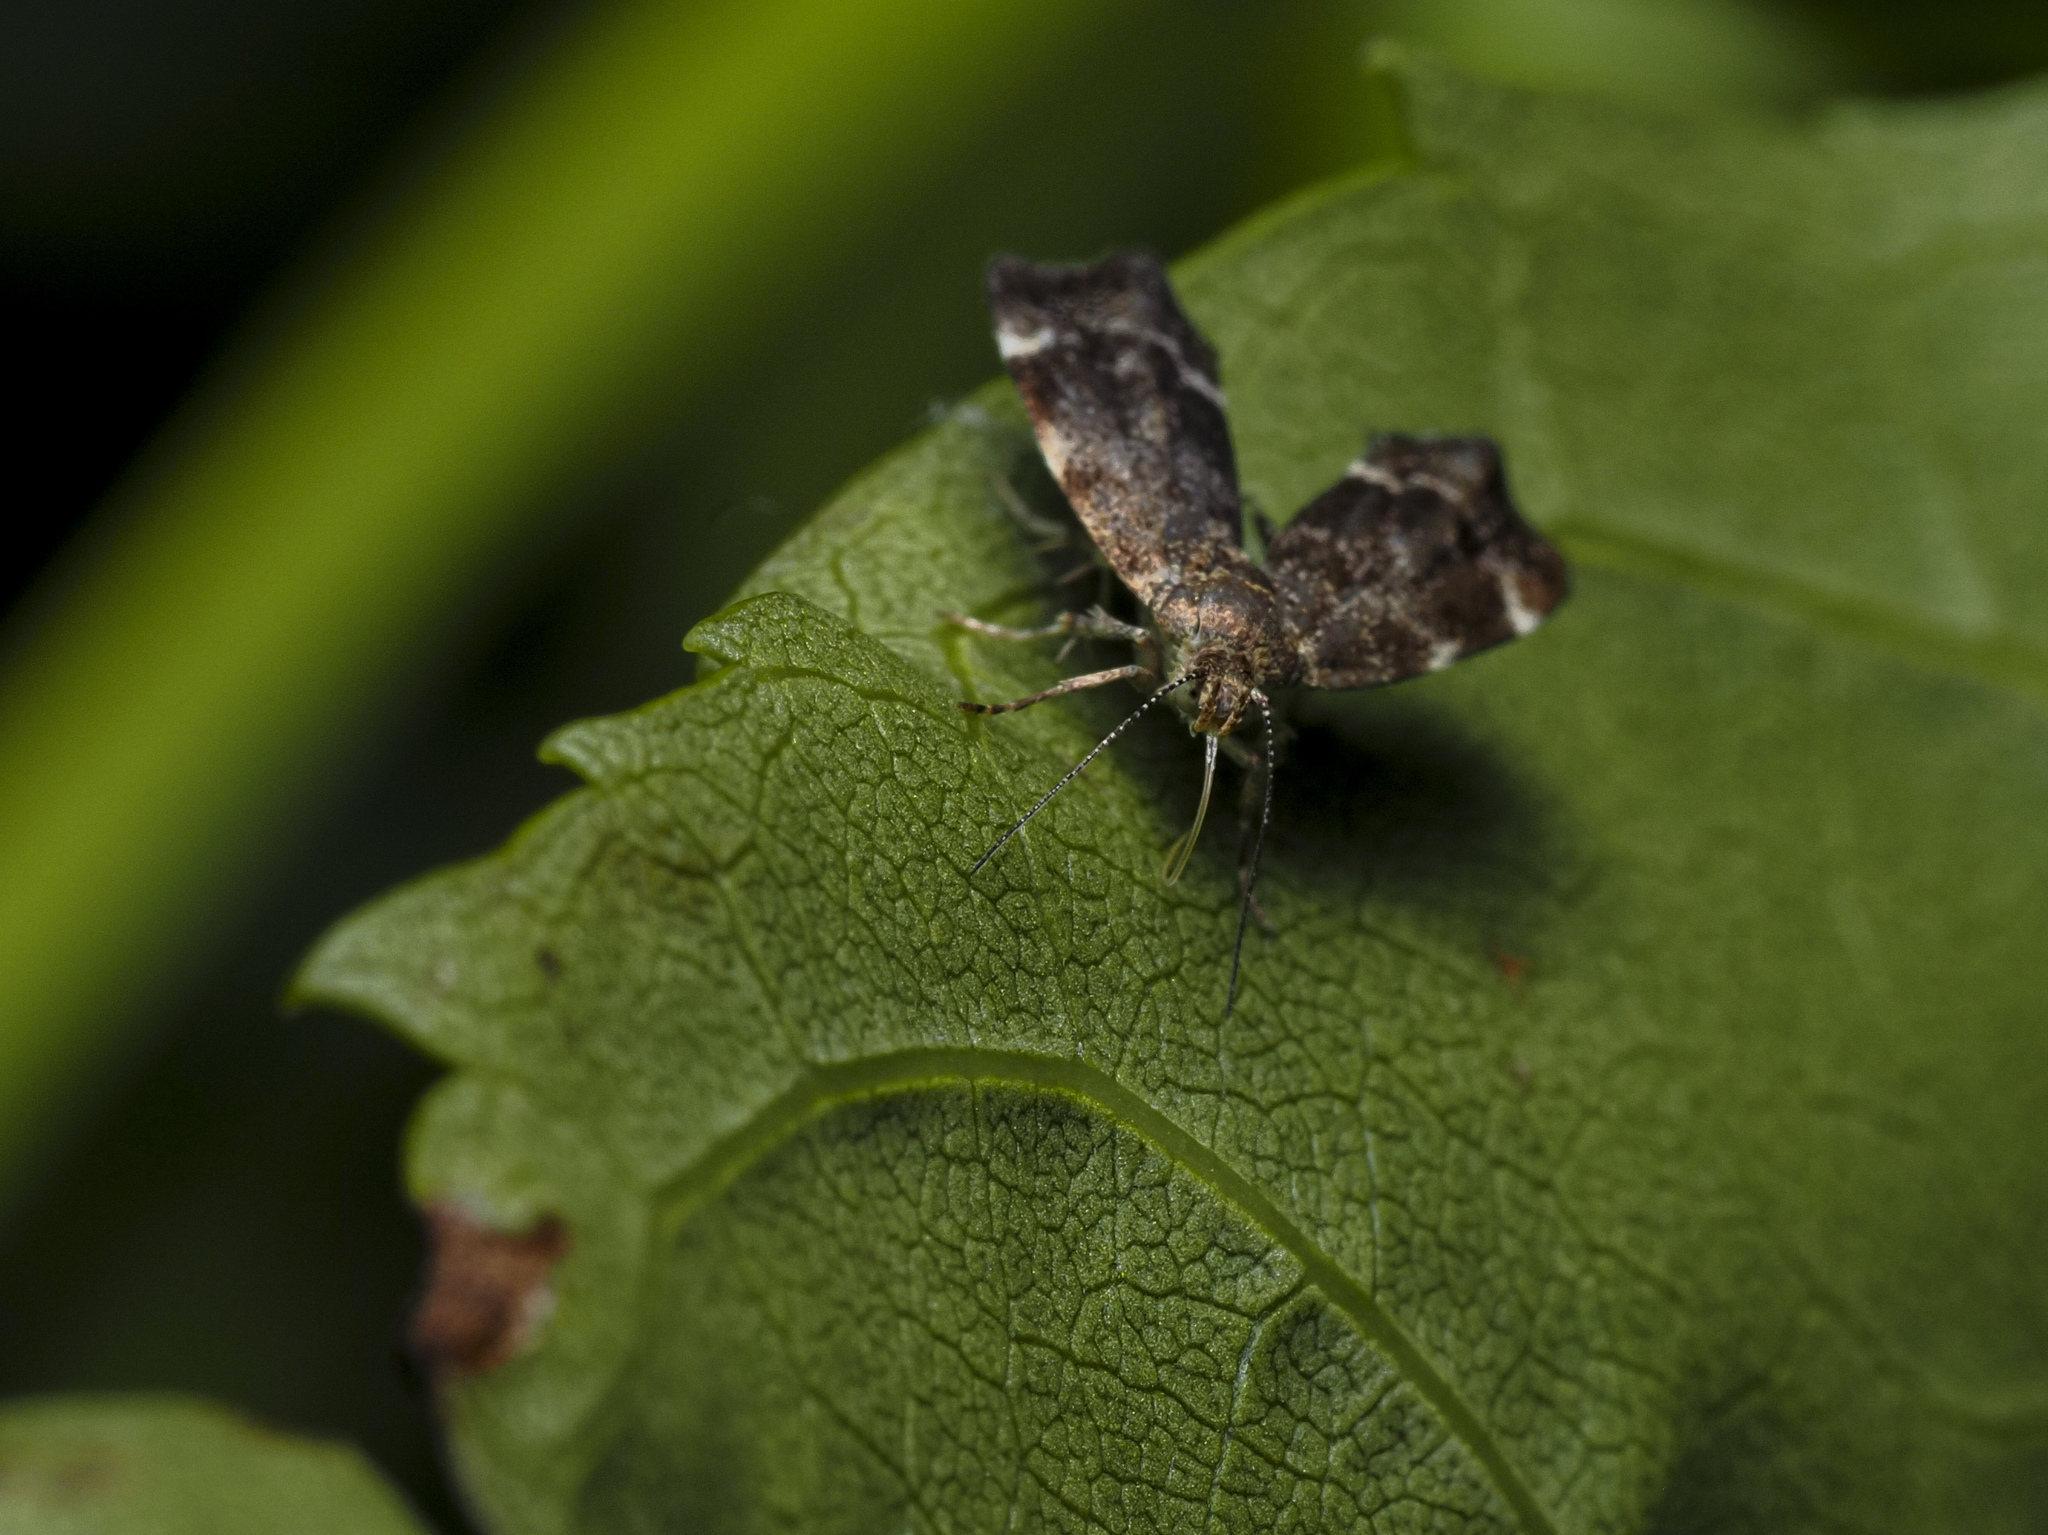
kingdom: Animalia
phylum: Arthropoda
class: Insecta
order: Lepidoptera
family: Choreutidae
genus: Anthophila
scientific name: Anthophila fabriciana
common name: Nettle-tap
